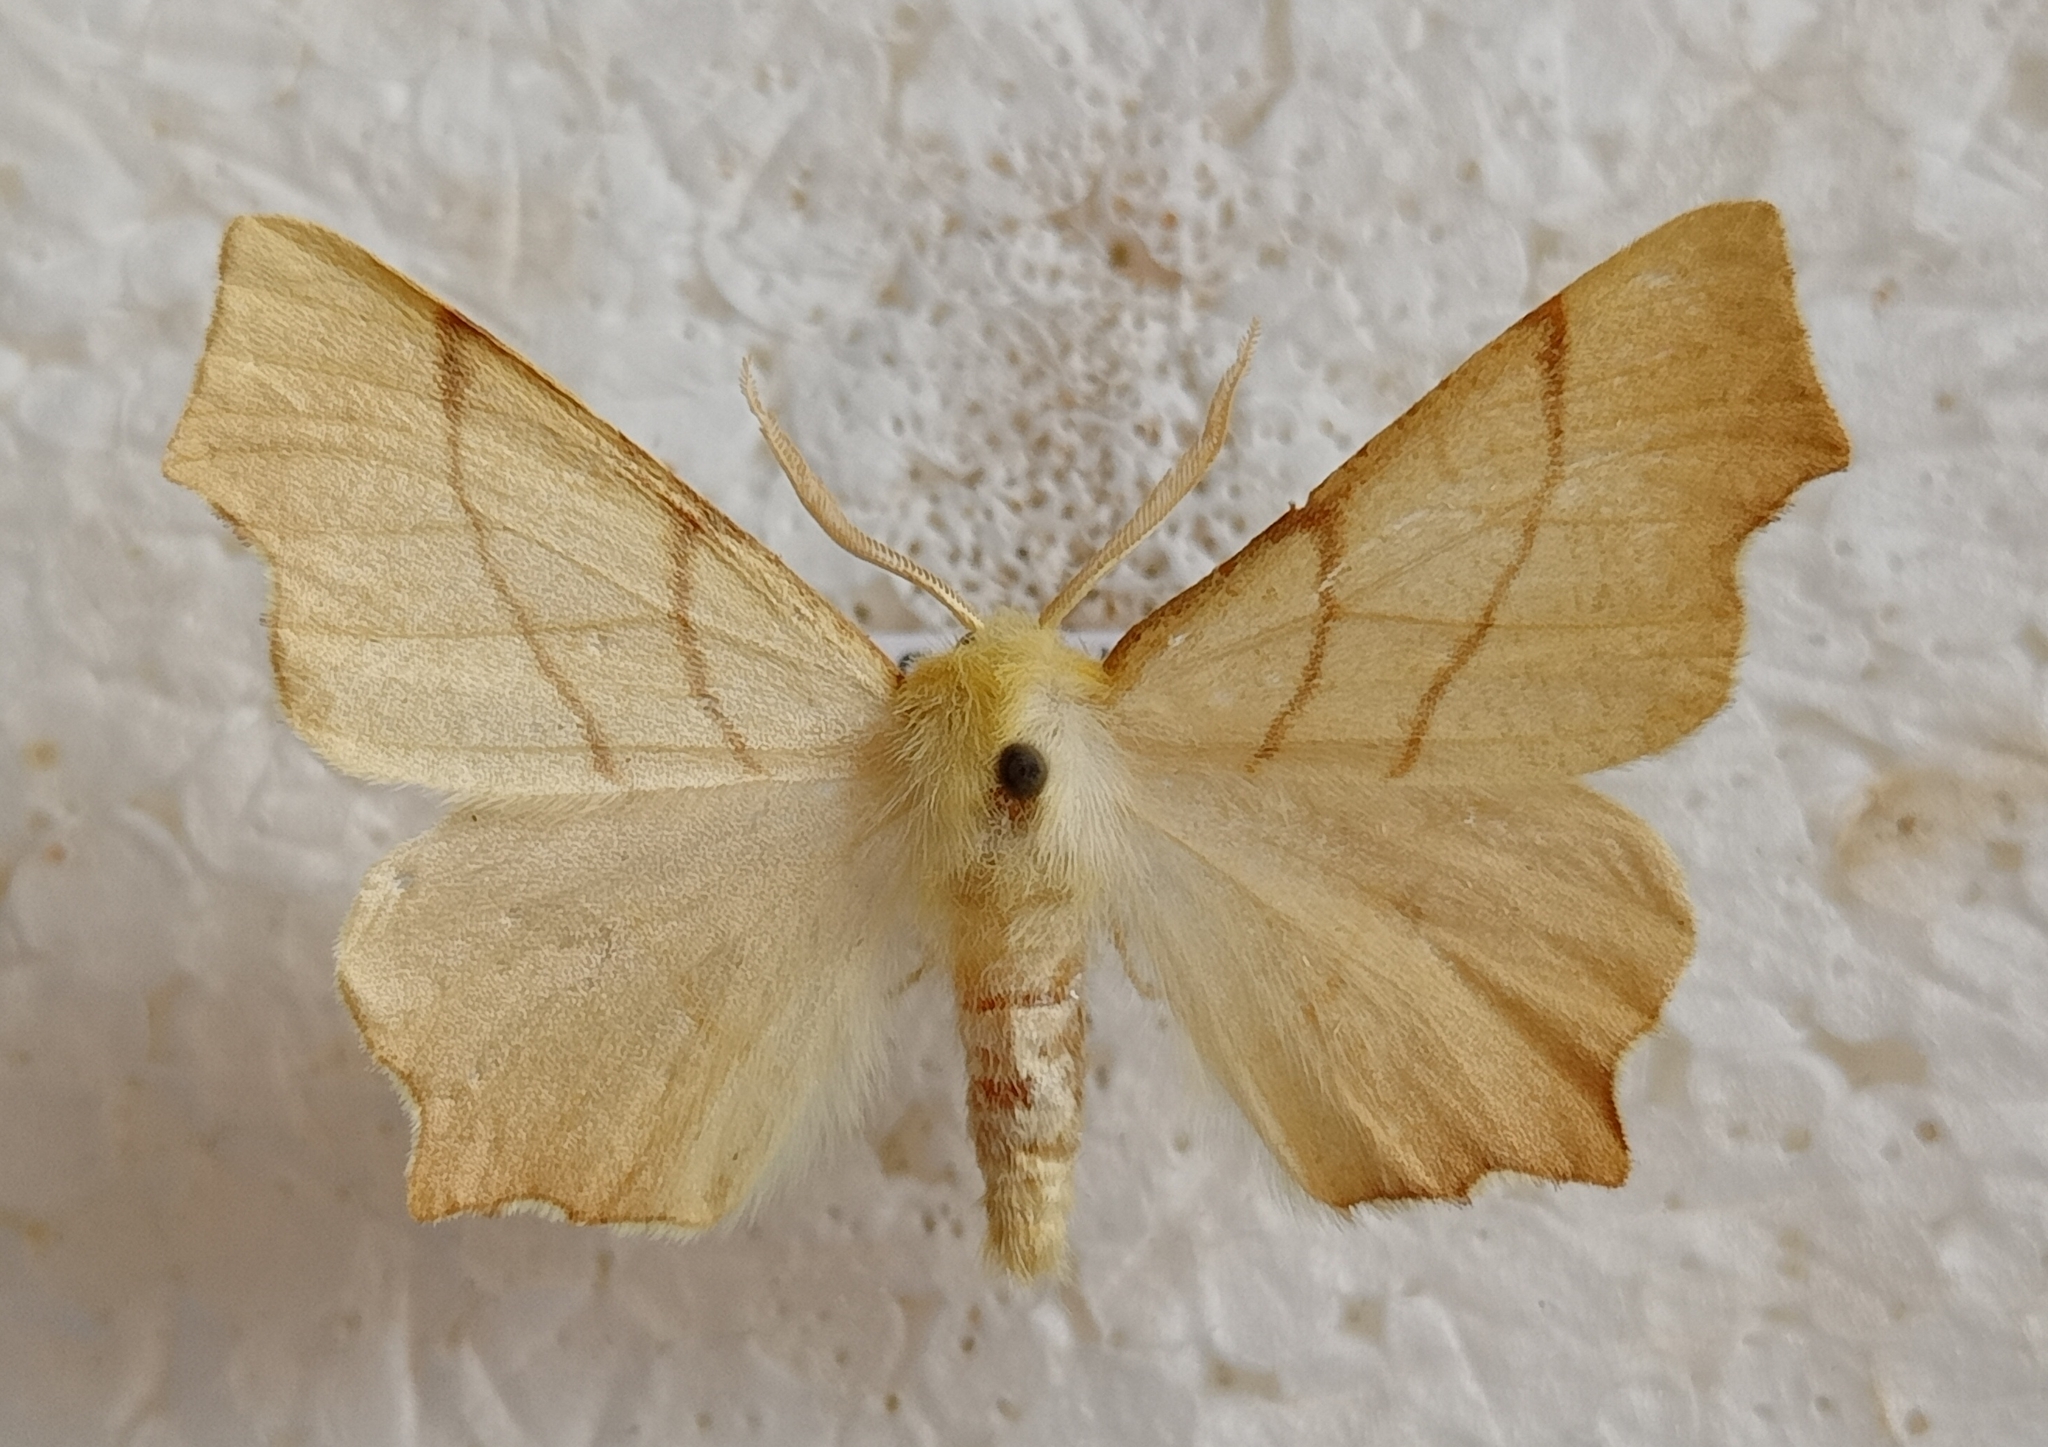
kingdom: Animalia
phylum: Arthropoda
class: Insecta
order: Lepidoptera
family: Geometridae
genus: Ennomos
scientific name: Ennomos erosaria
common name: September thorn
